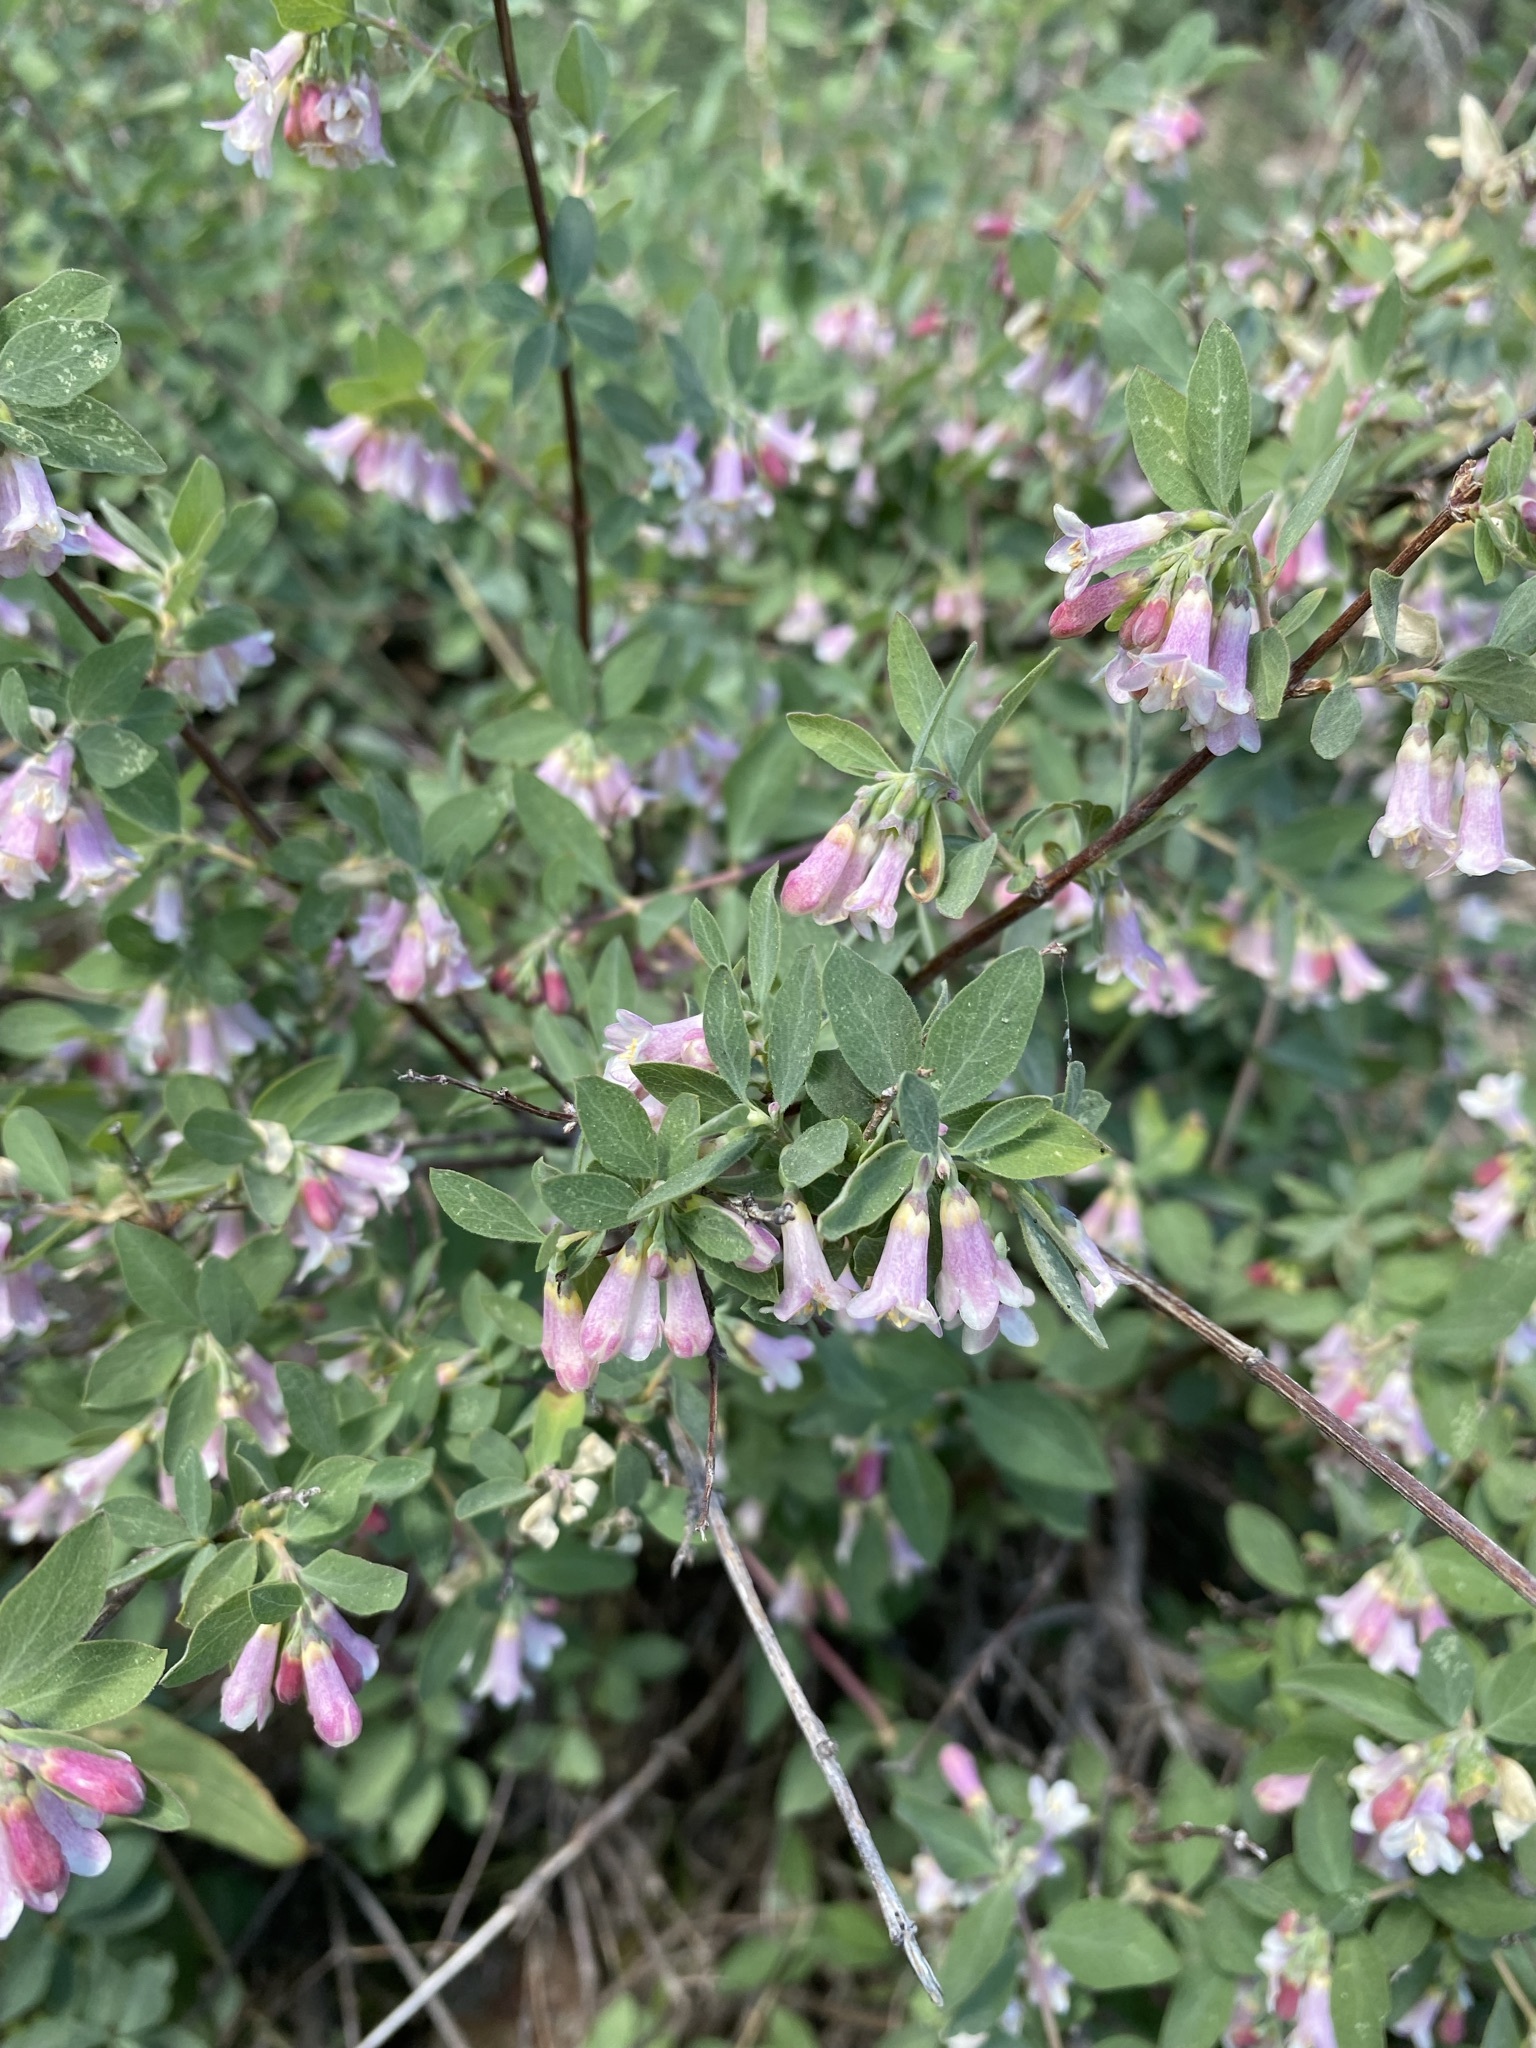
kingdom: Plantae
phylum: Tracheophyta
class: Magnoliopsida
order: Dipsacales
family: Caprifoliaceae
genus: Symphoricarpos
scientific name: Symphoricarpos rotundifolius
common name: Round-leaved snowberry
